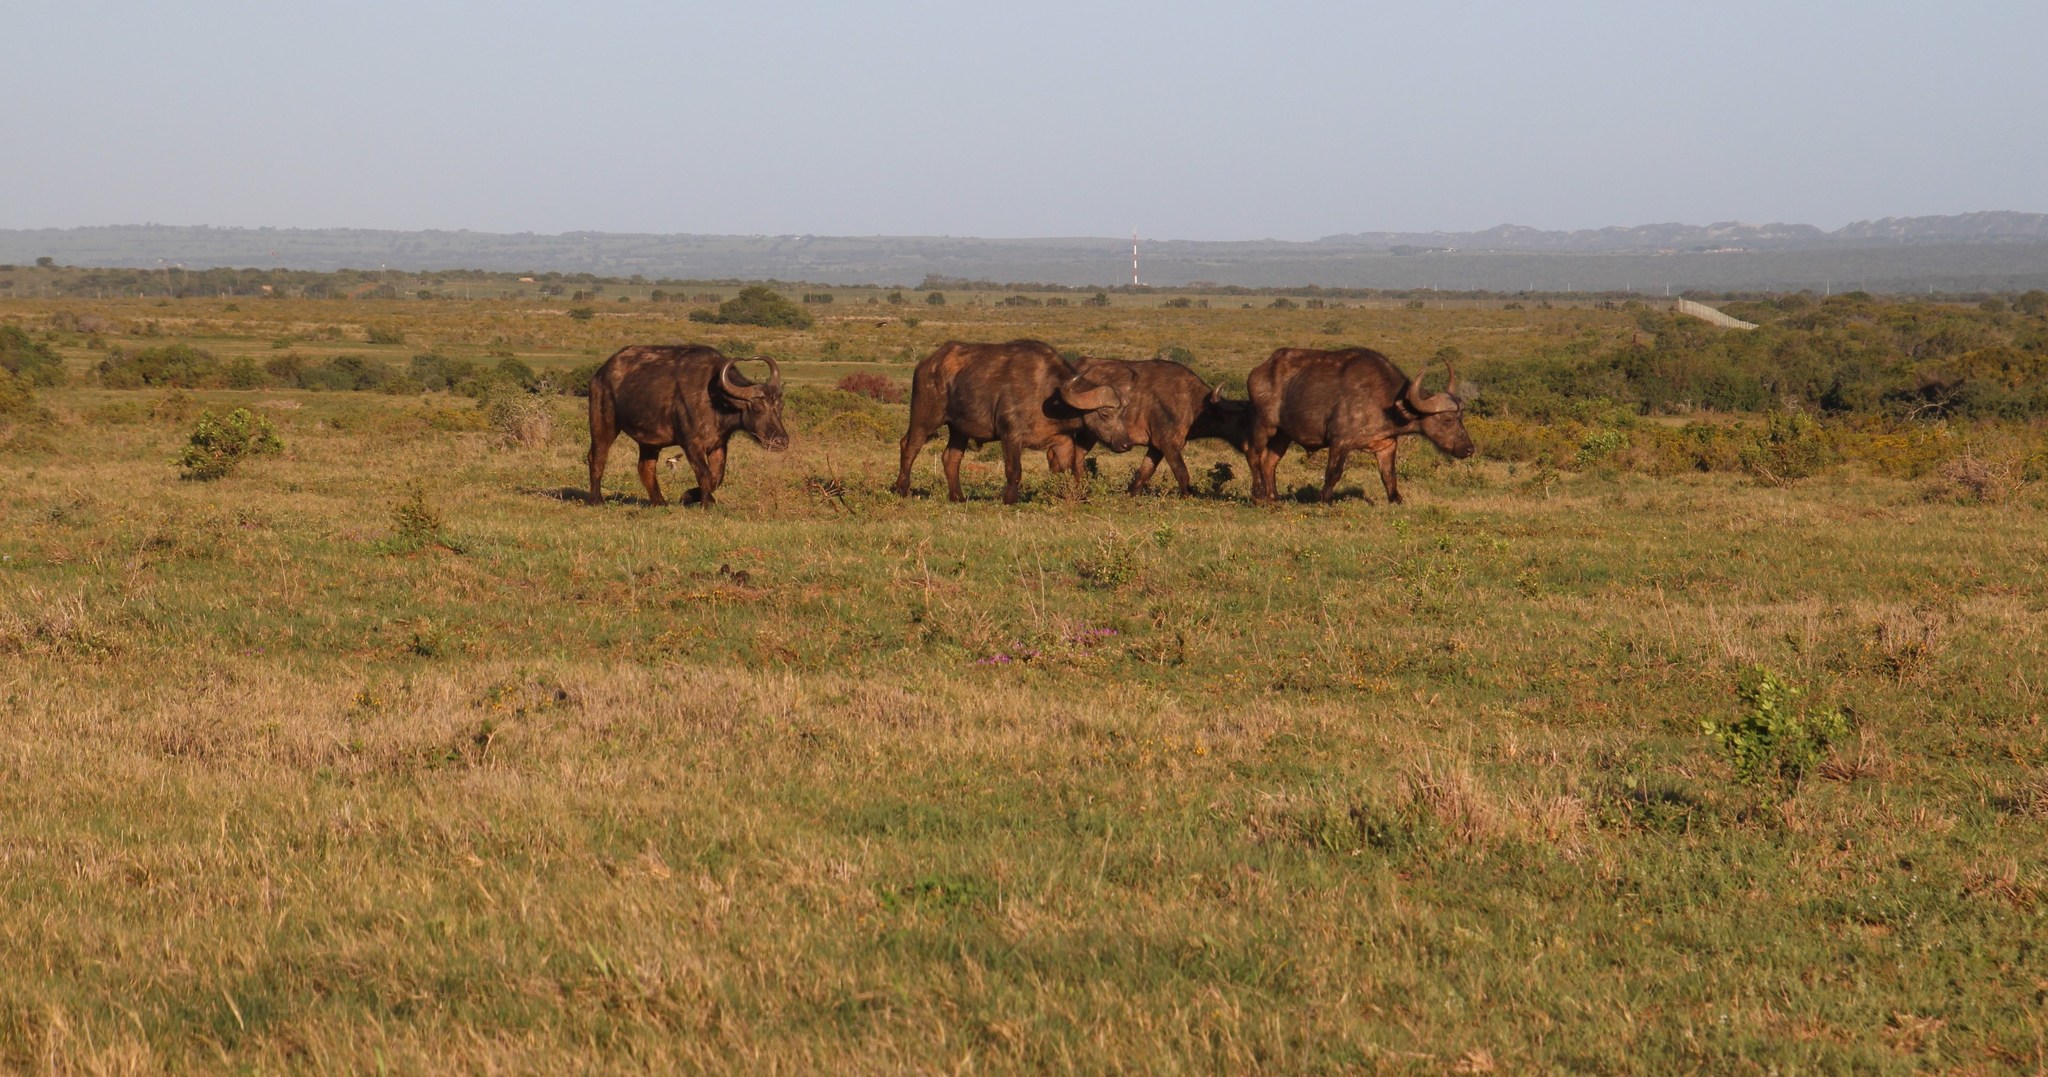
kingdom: Animalia
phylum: Chordata
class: Mammalia
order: Artiodactyla
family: Bovidae
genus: Syncerus
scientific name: Syncerus caffer
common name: African buffalo
